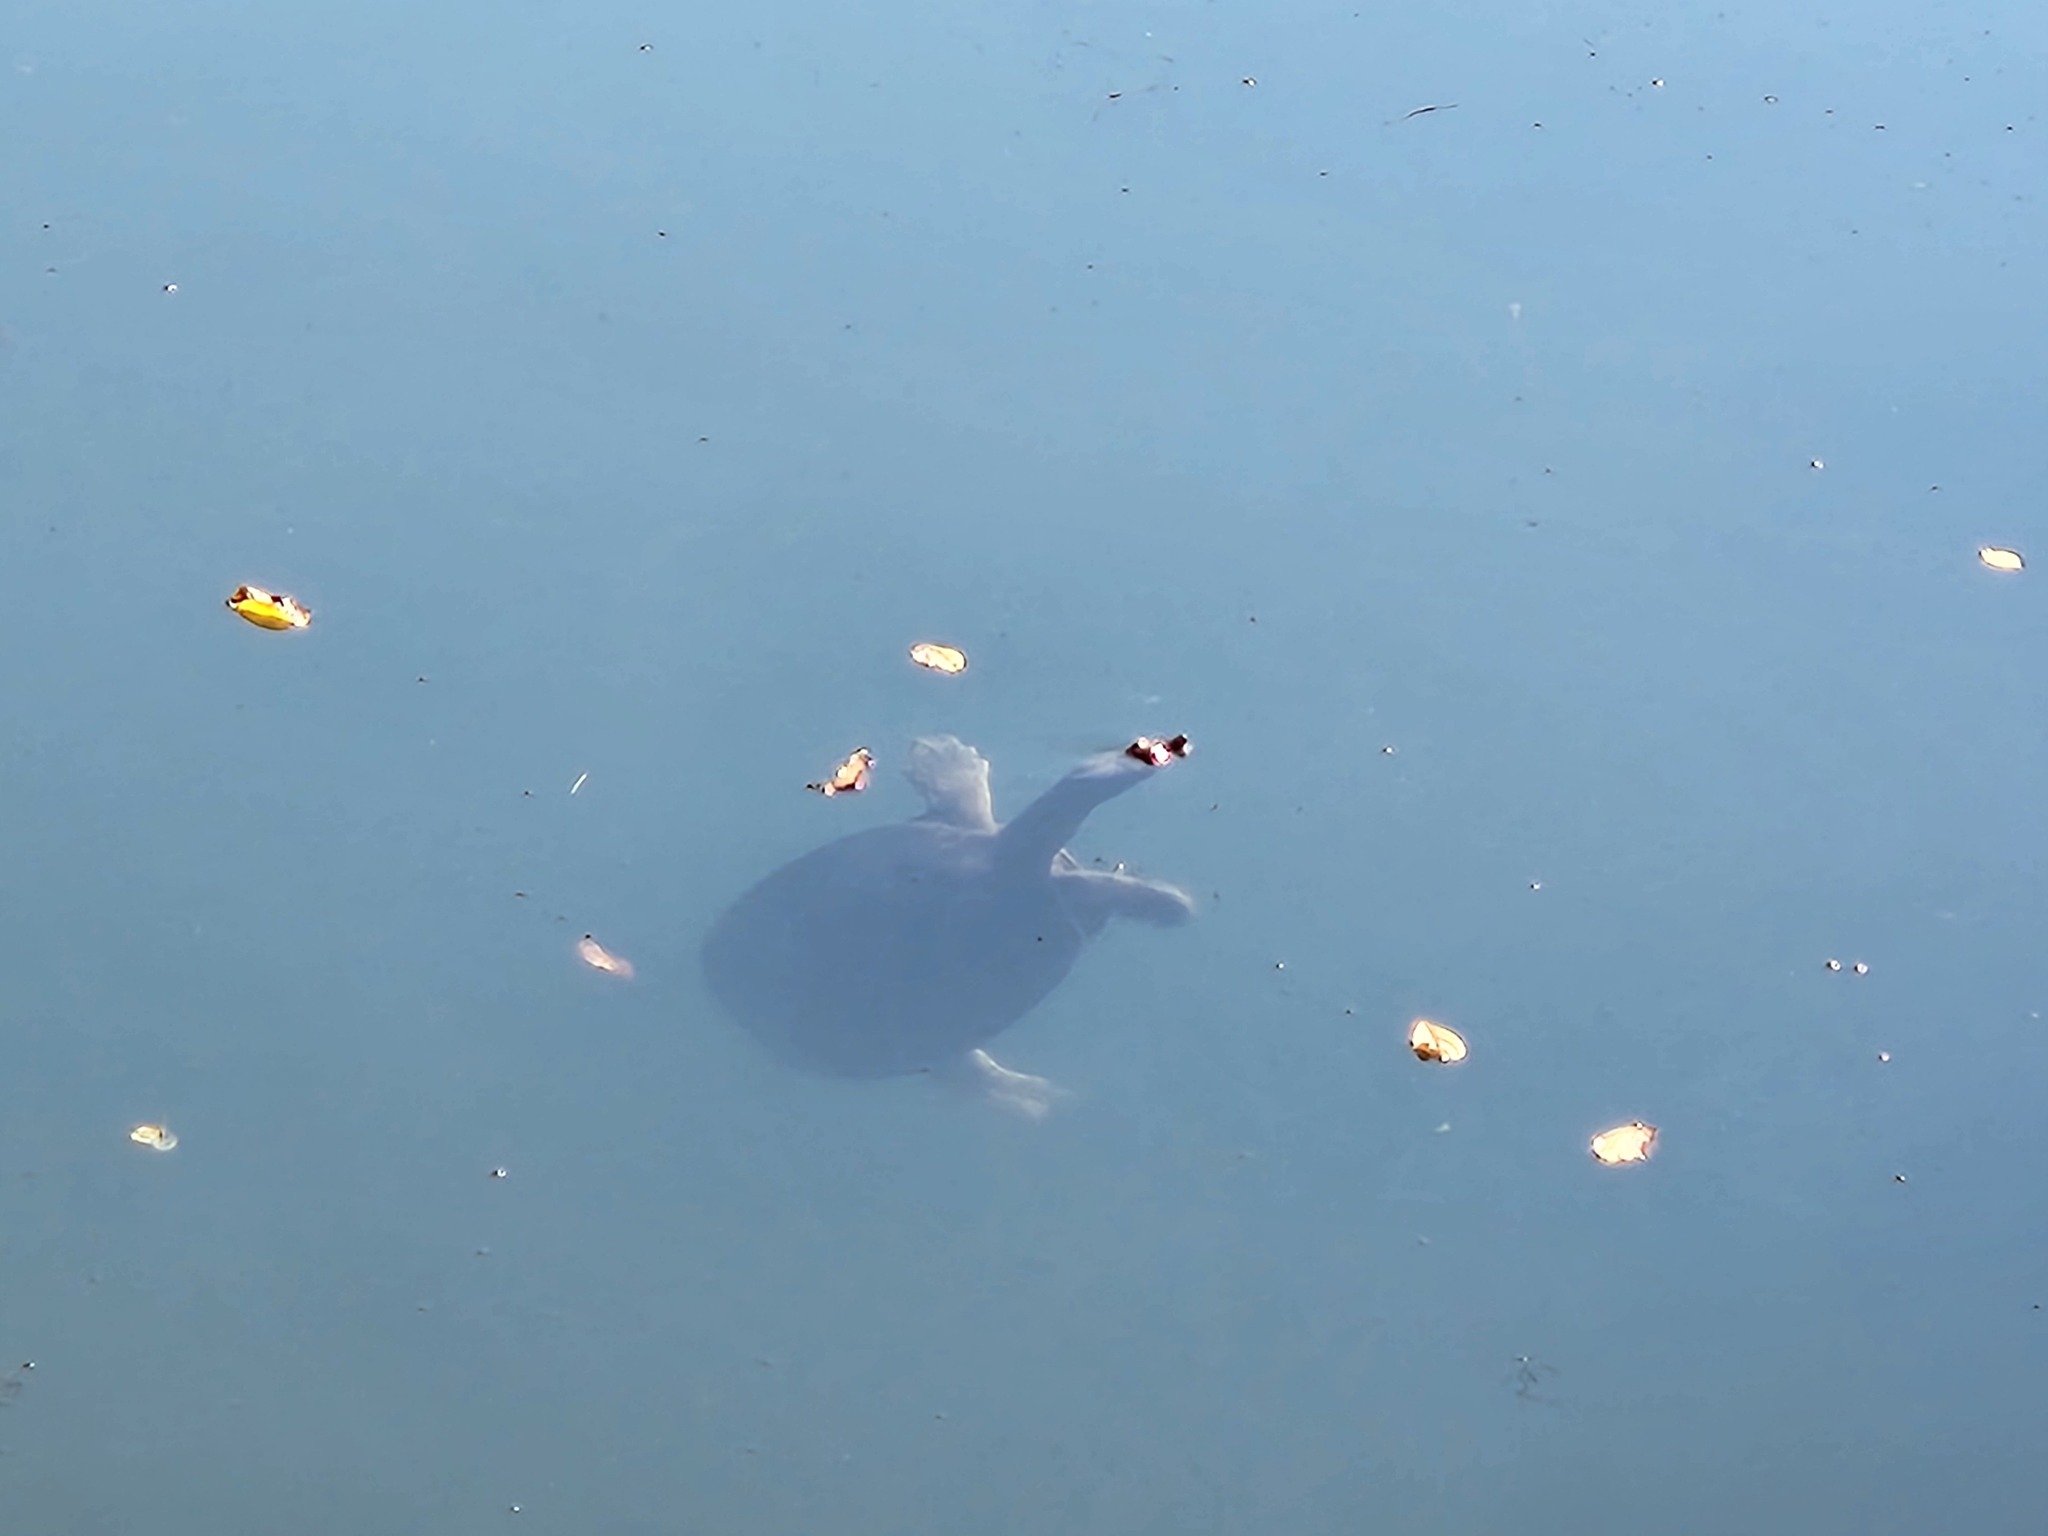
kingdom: Animalia
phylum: Chordata
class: Testudines
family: Trionychidae
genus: Apalone
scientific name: Apalone spinifera
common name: Spiny softshell turtle
